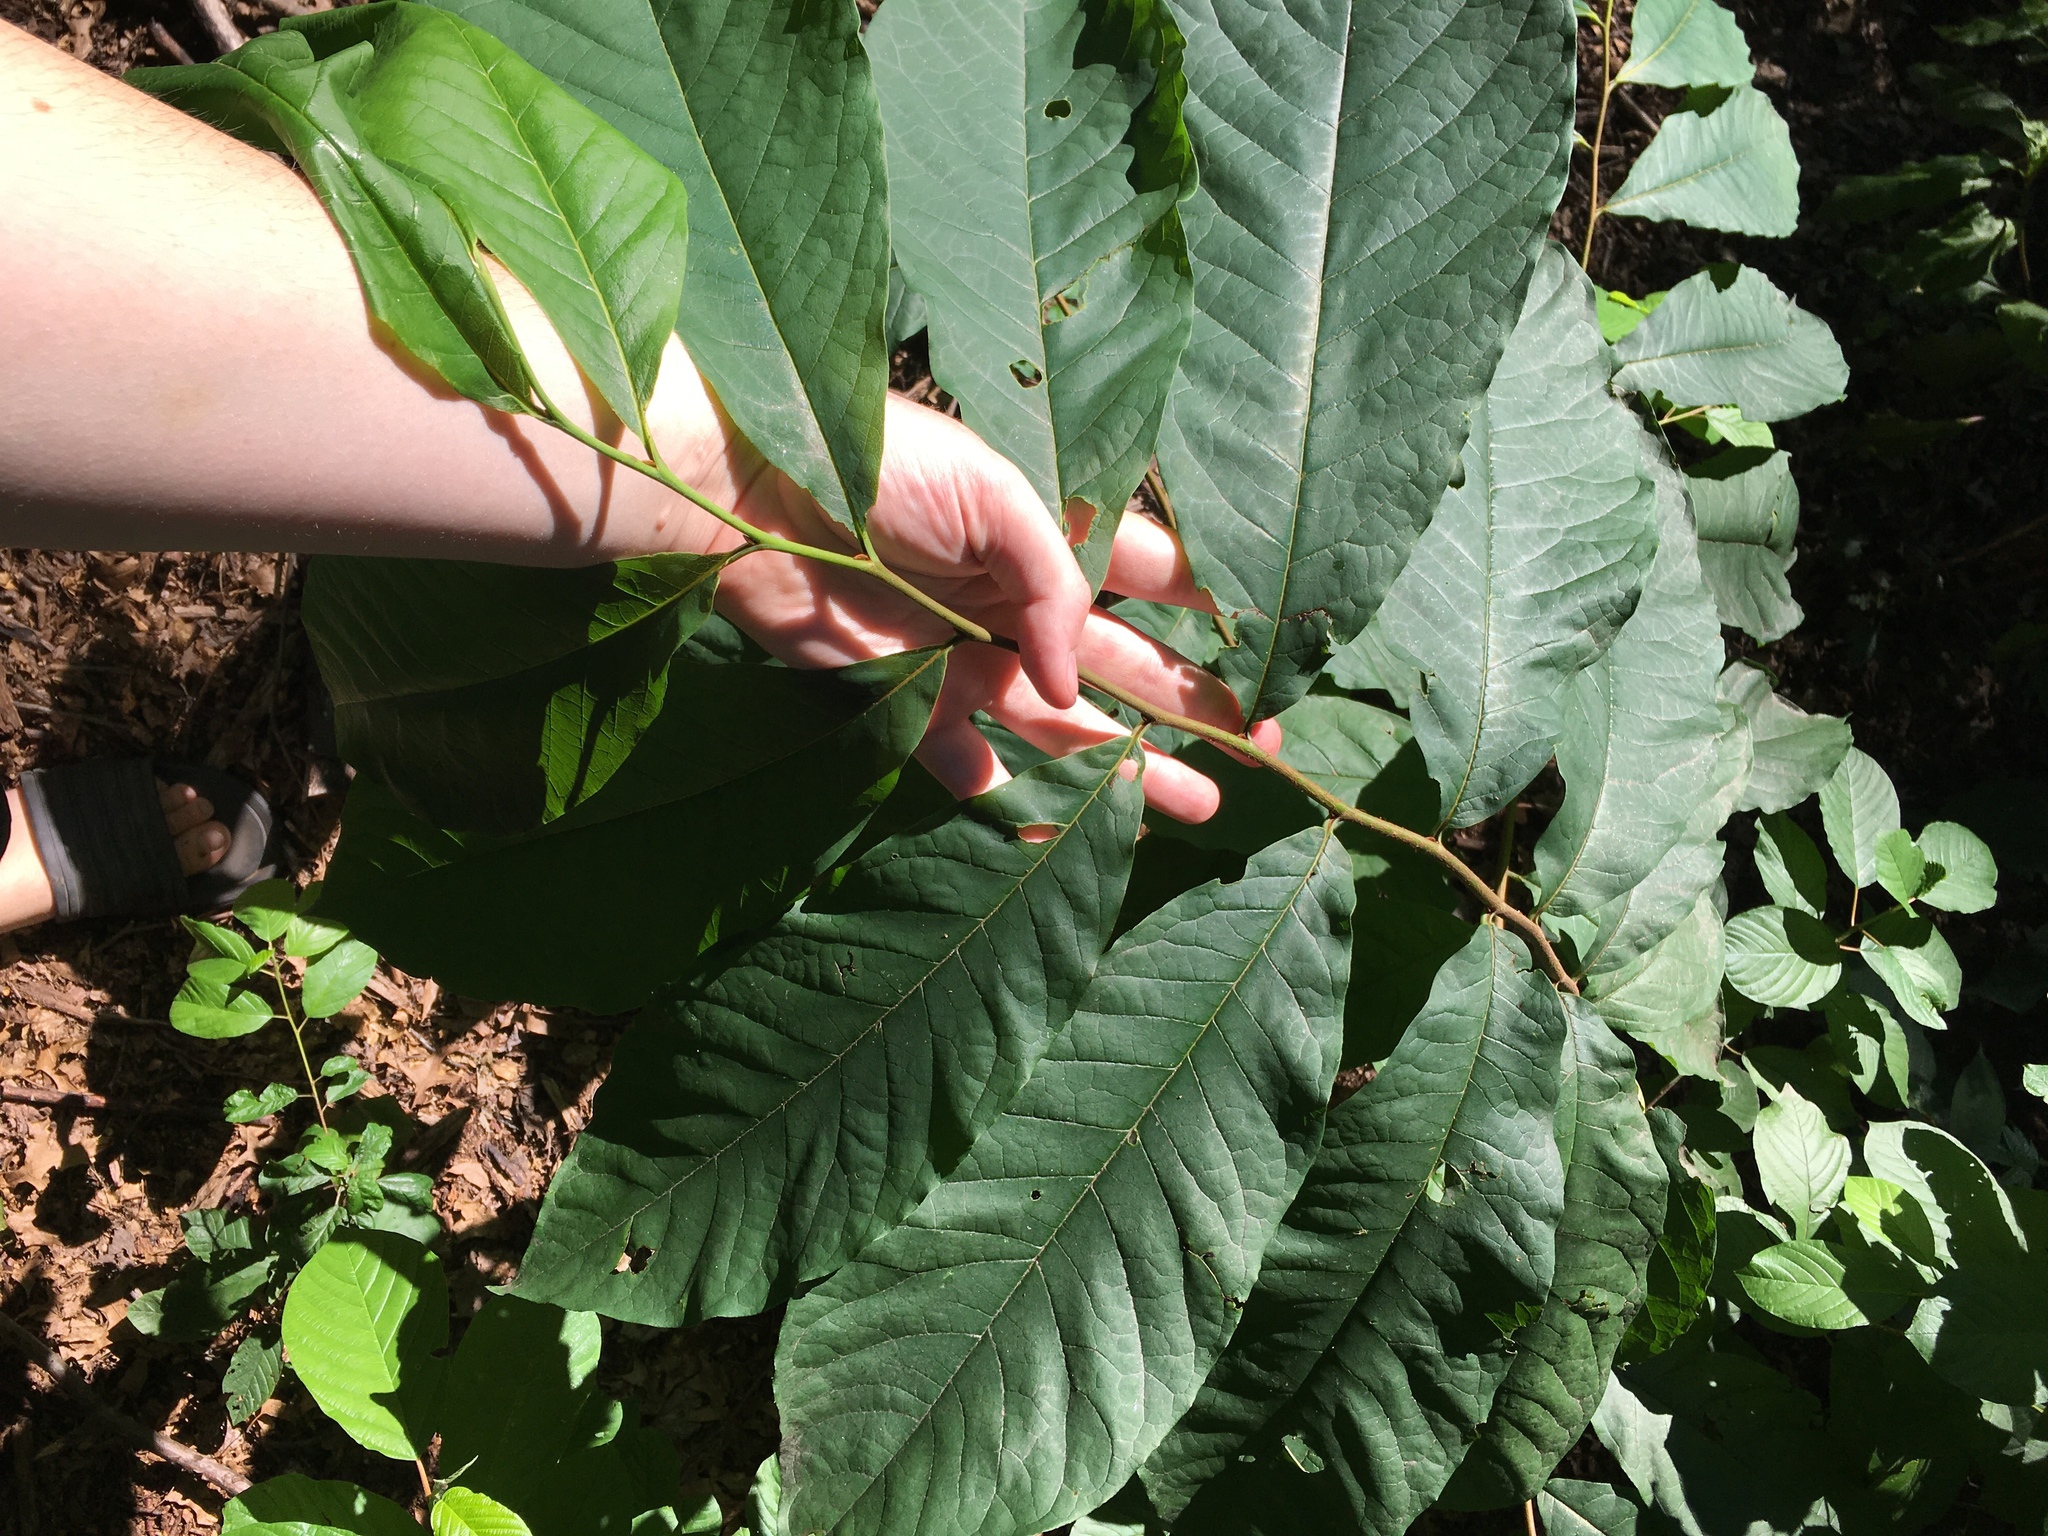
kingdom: Plantae
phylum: Tracheophyta
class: Magnoliopsida
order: Magnoliales
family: Annonaceae
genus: Asimina
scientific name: Asimina triloba
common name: Dog-banana
